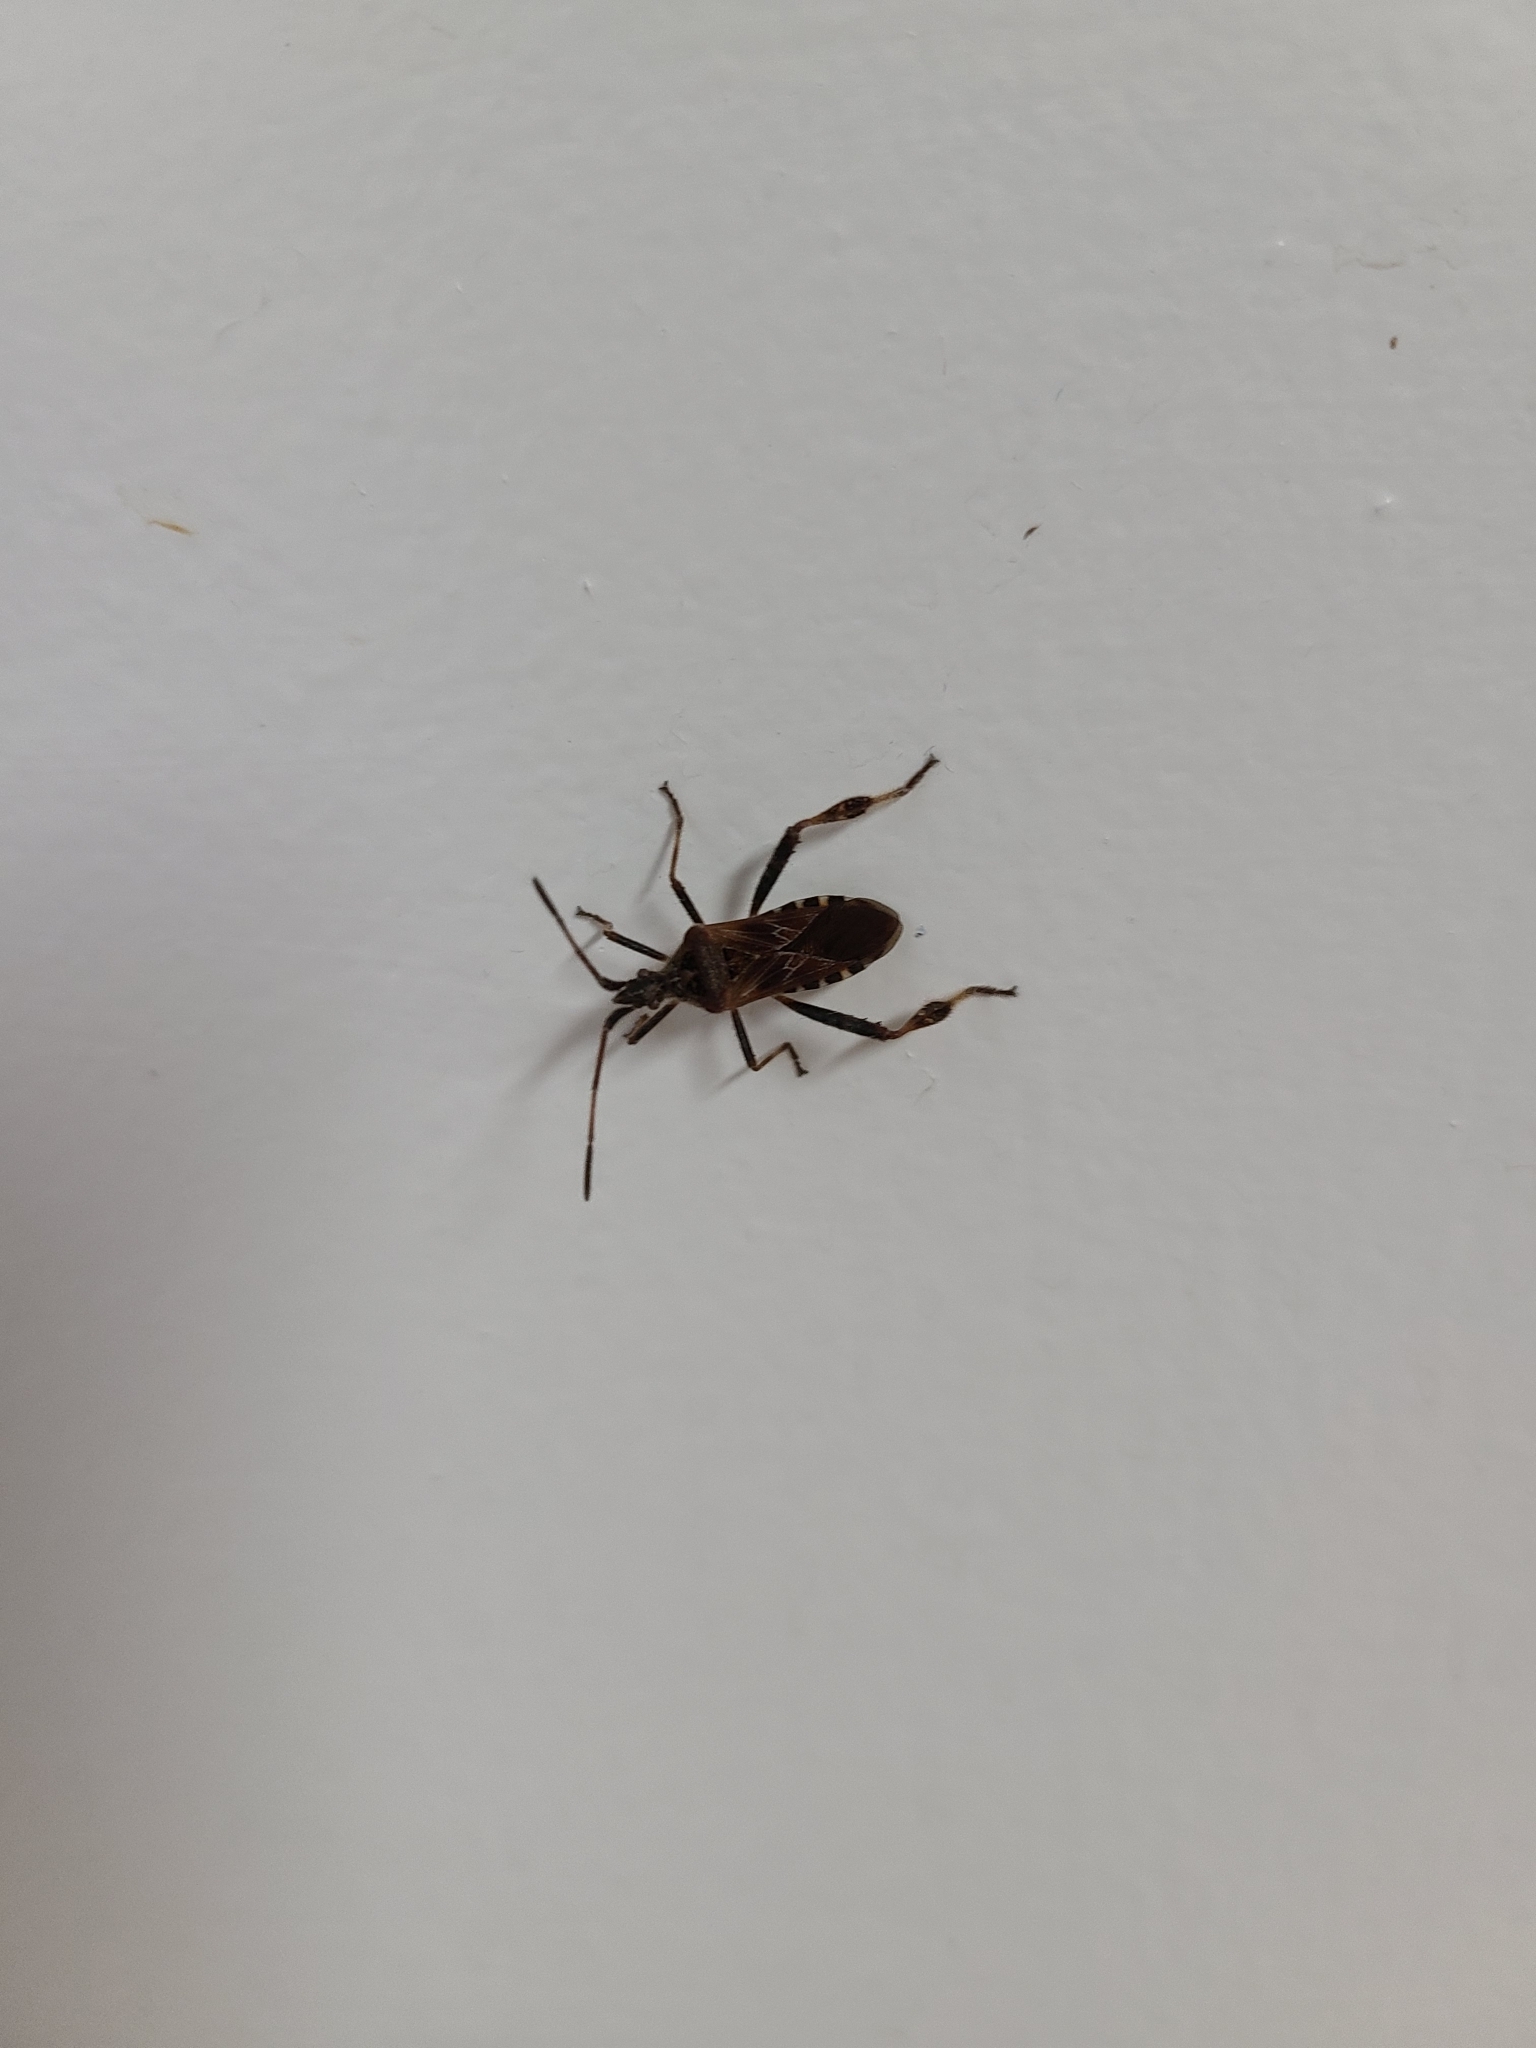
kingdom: Animalia
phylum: Arthropoda
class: Insecta
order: Hemiptera
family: Coreidae
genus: Leptoglossus
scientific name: Leptoglossus occidentalis
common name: Western conifer-seed bug
